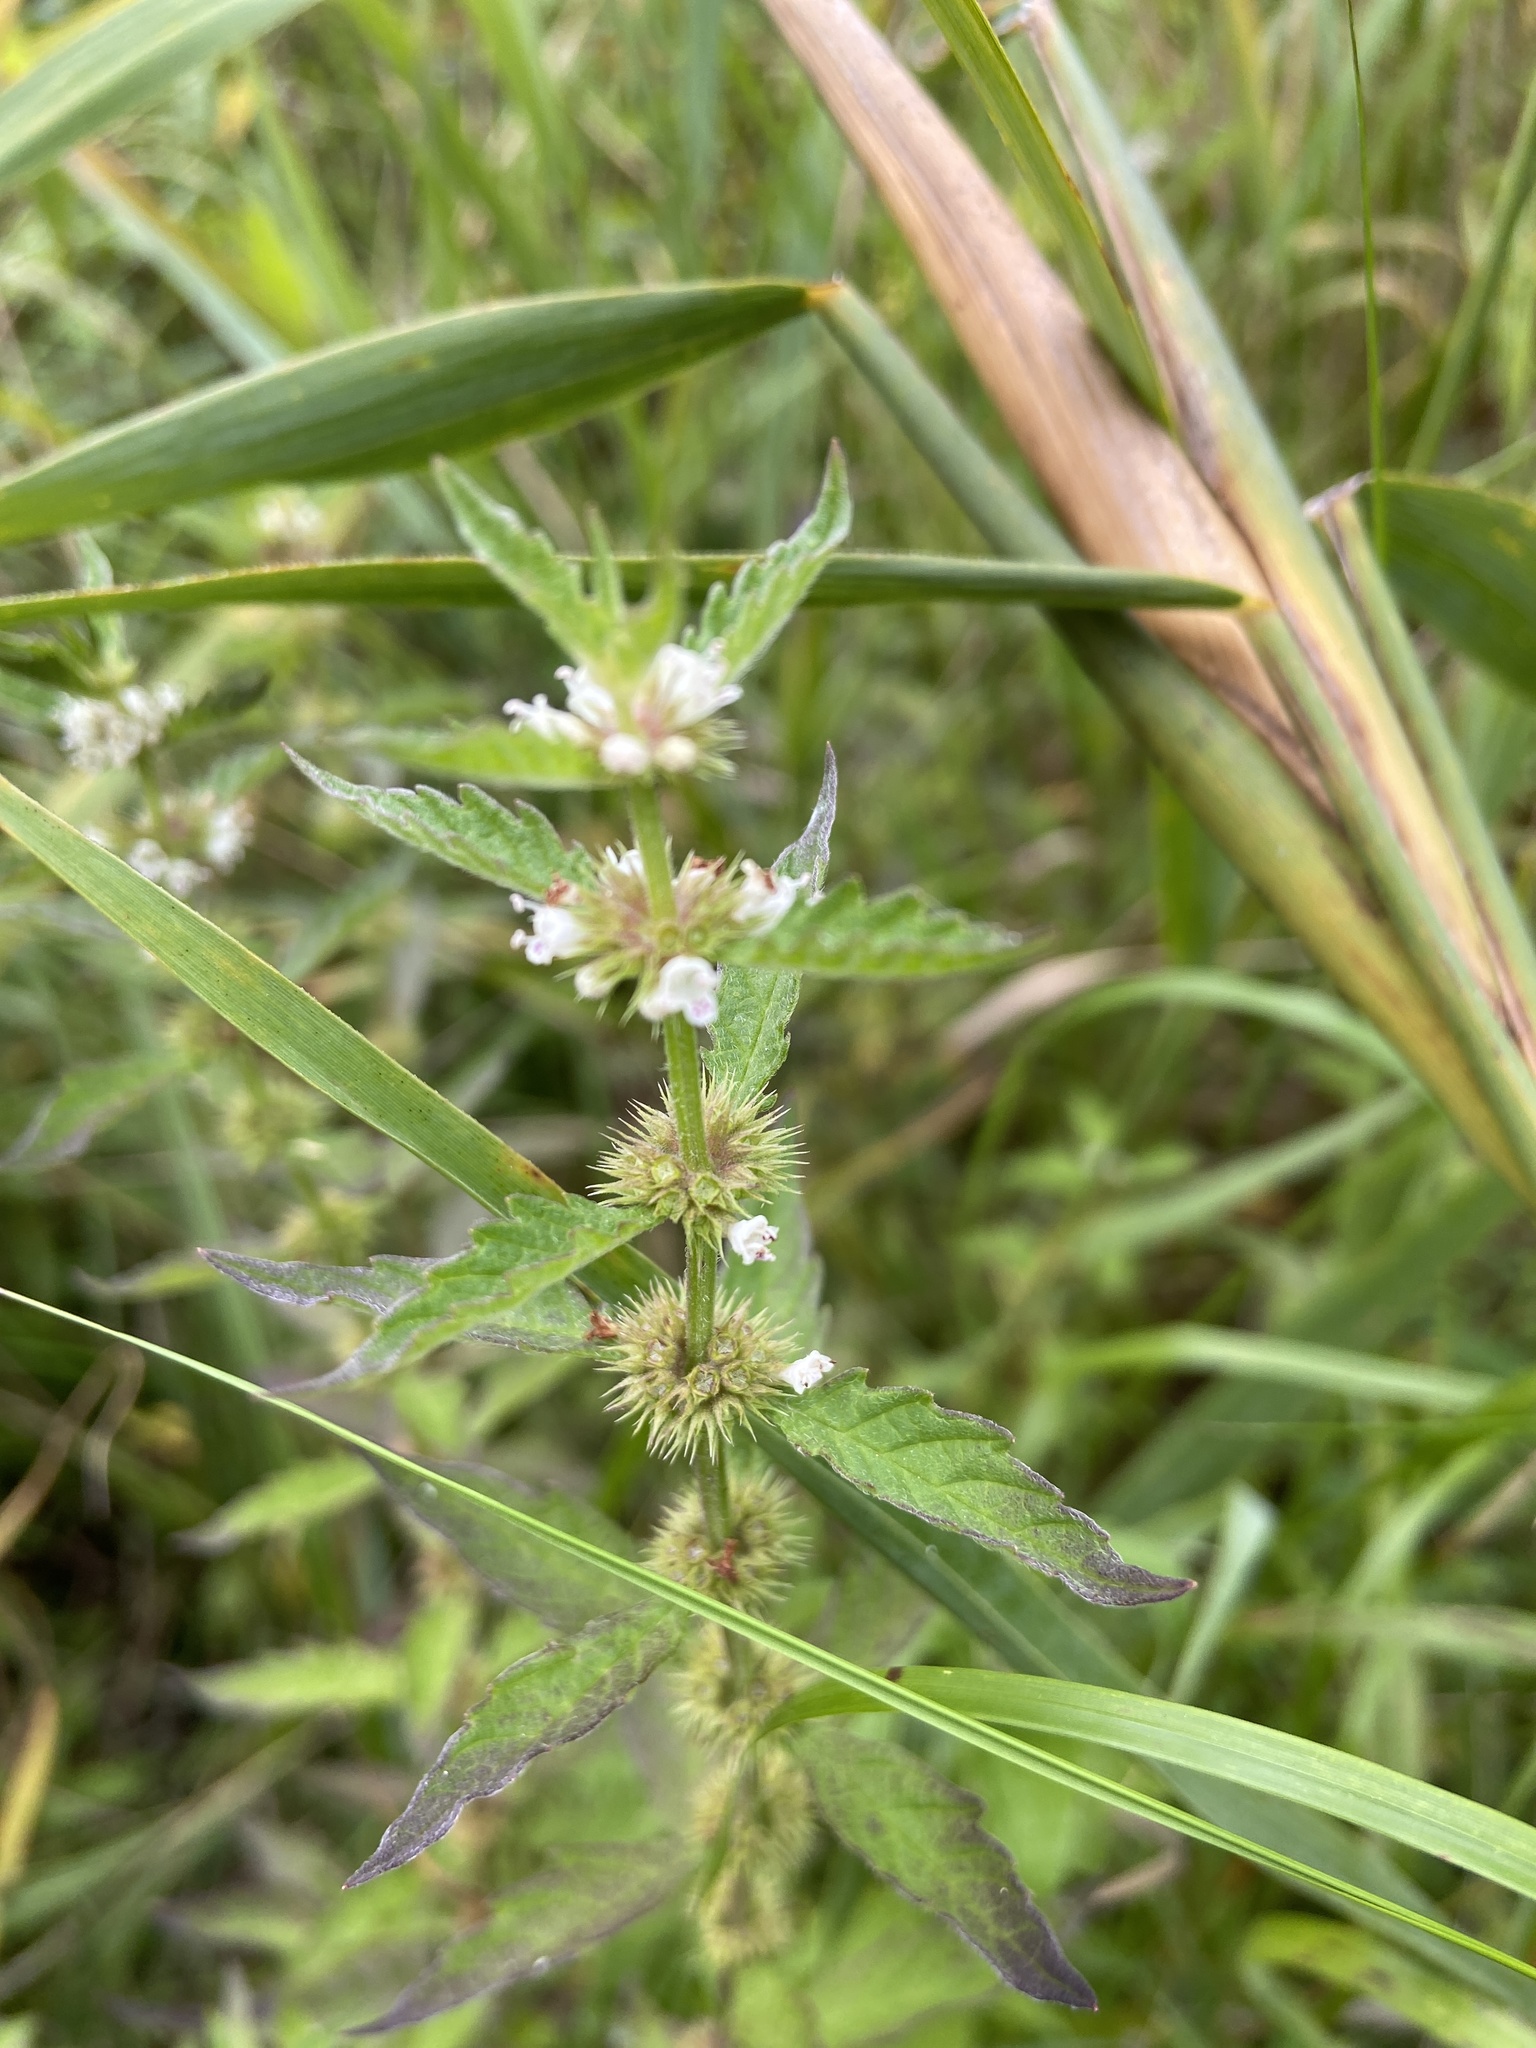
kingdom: Plantae
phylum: Tracheophyta
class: Magnoliopsida
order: Lamiales
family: Lamiaceae
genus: Lycopus
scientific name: Lycopus europaeus
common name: European bugleweed
